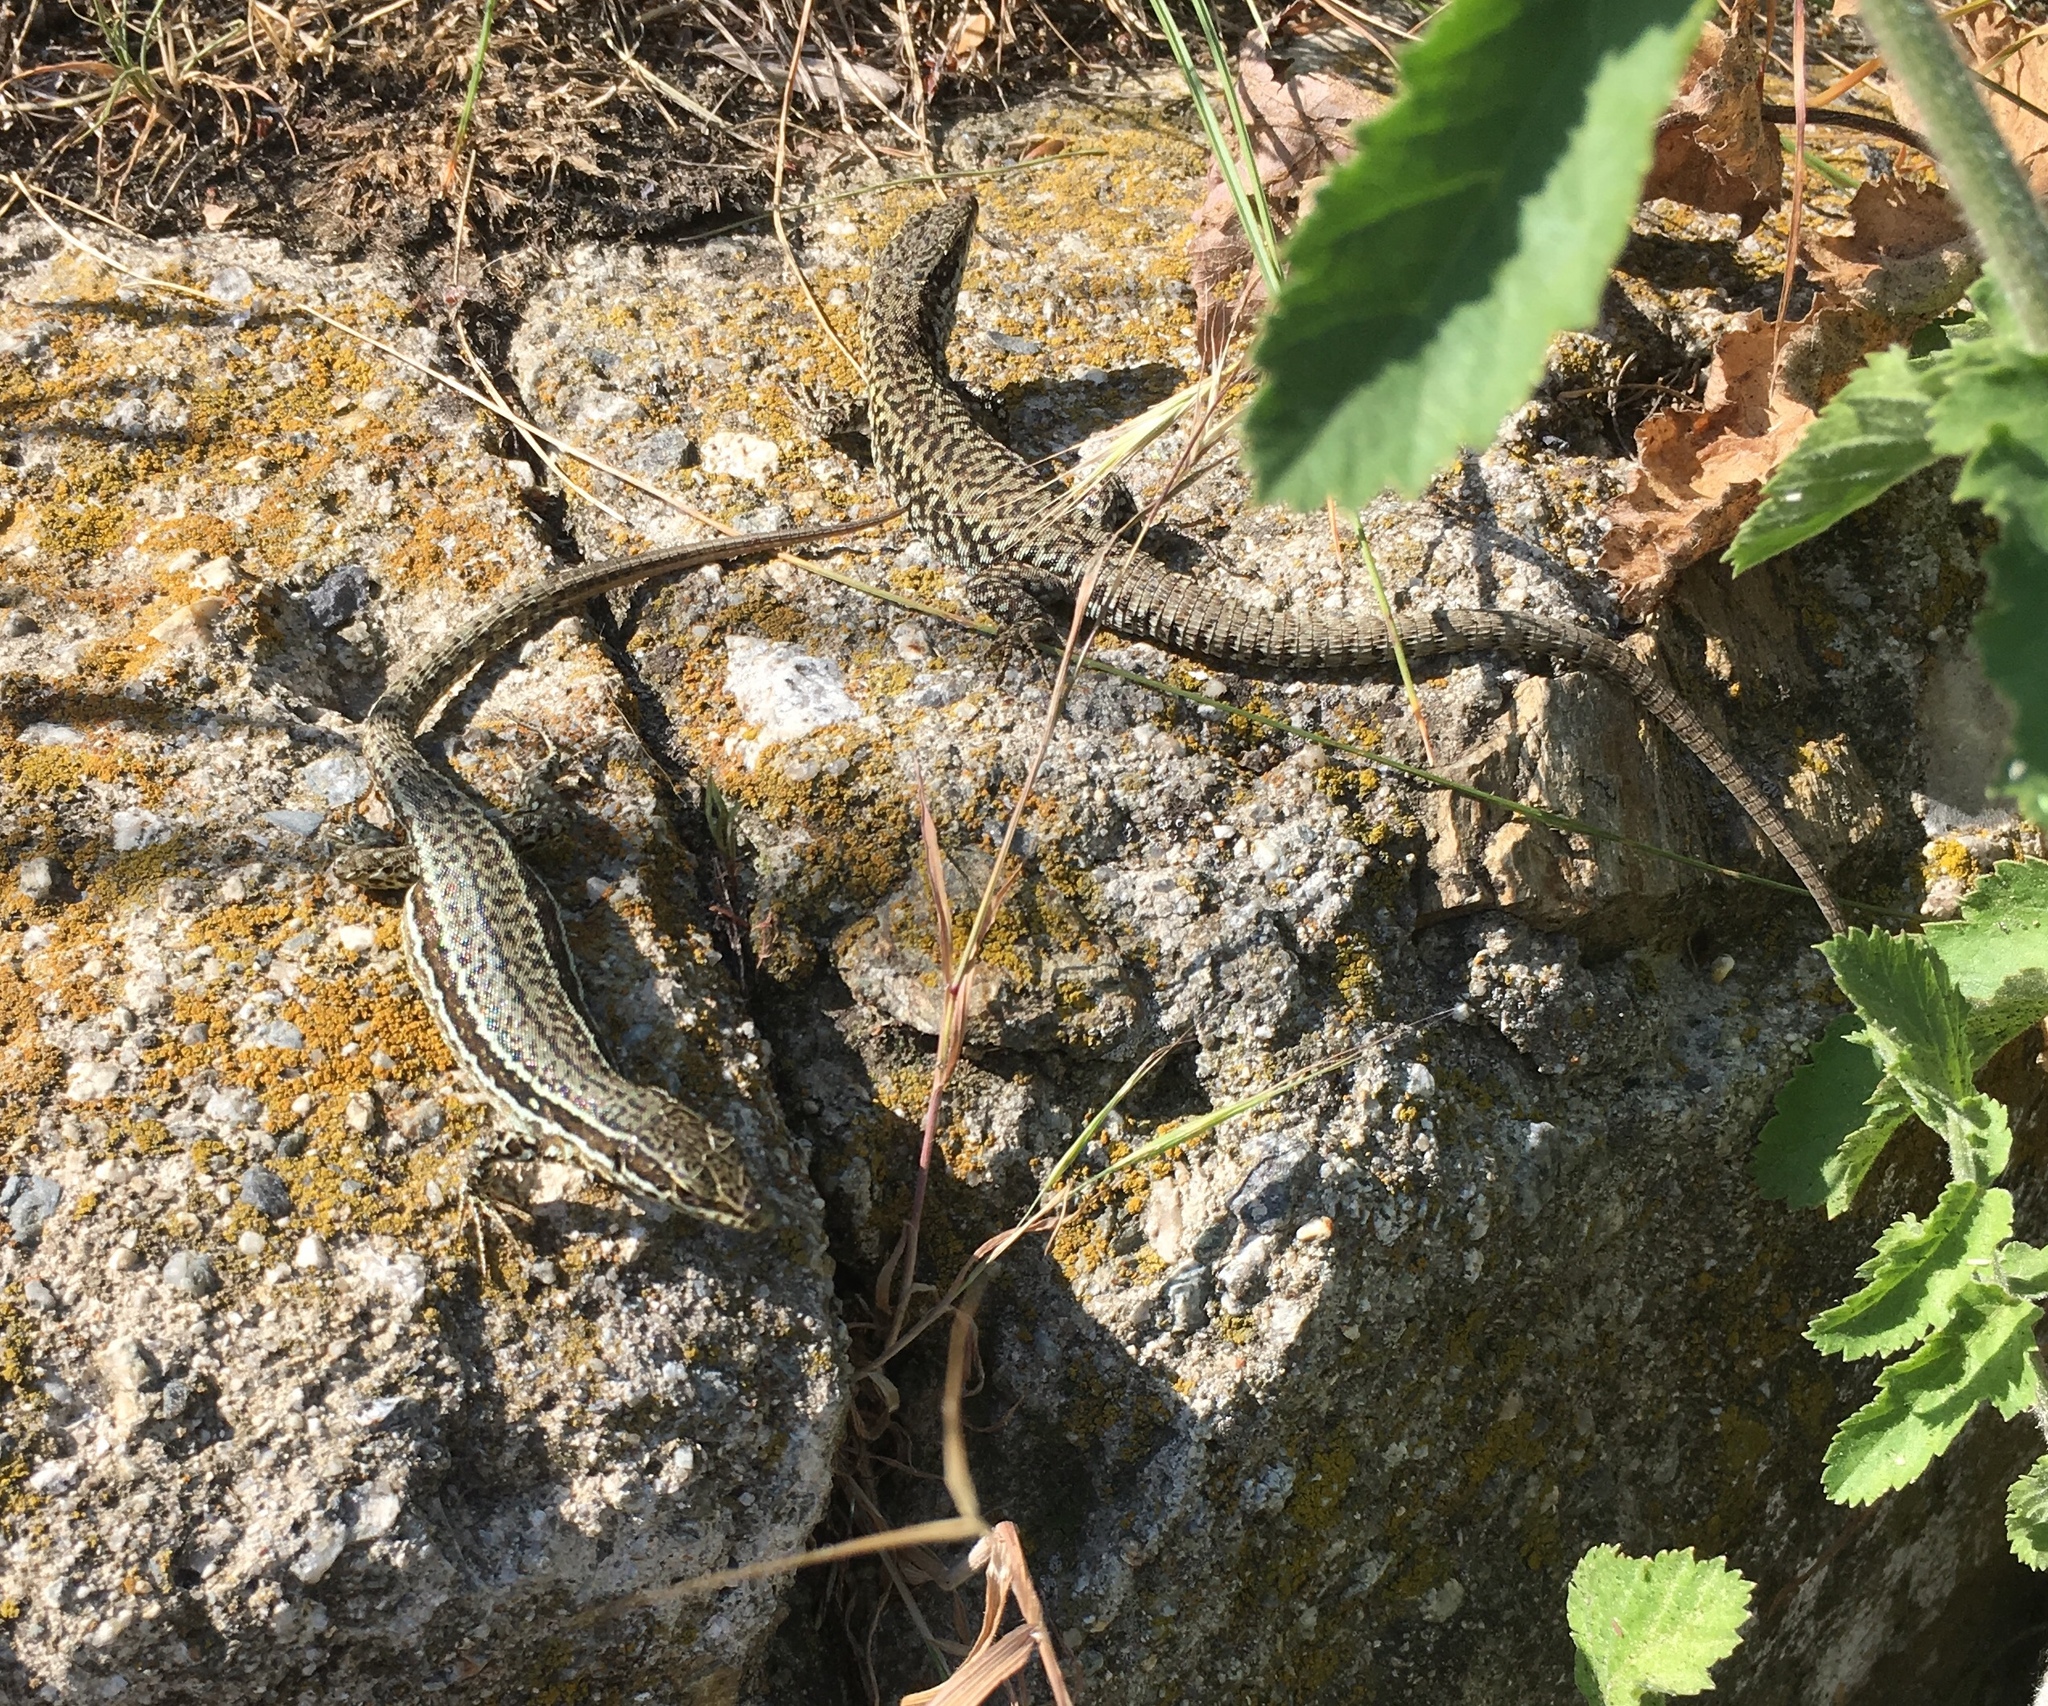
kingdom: Animalia
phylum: Chordata
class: Squamata
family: Lacertidae
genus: Podarcis
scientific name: Podarcis muralis
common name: Common wall lizard
